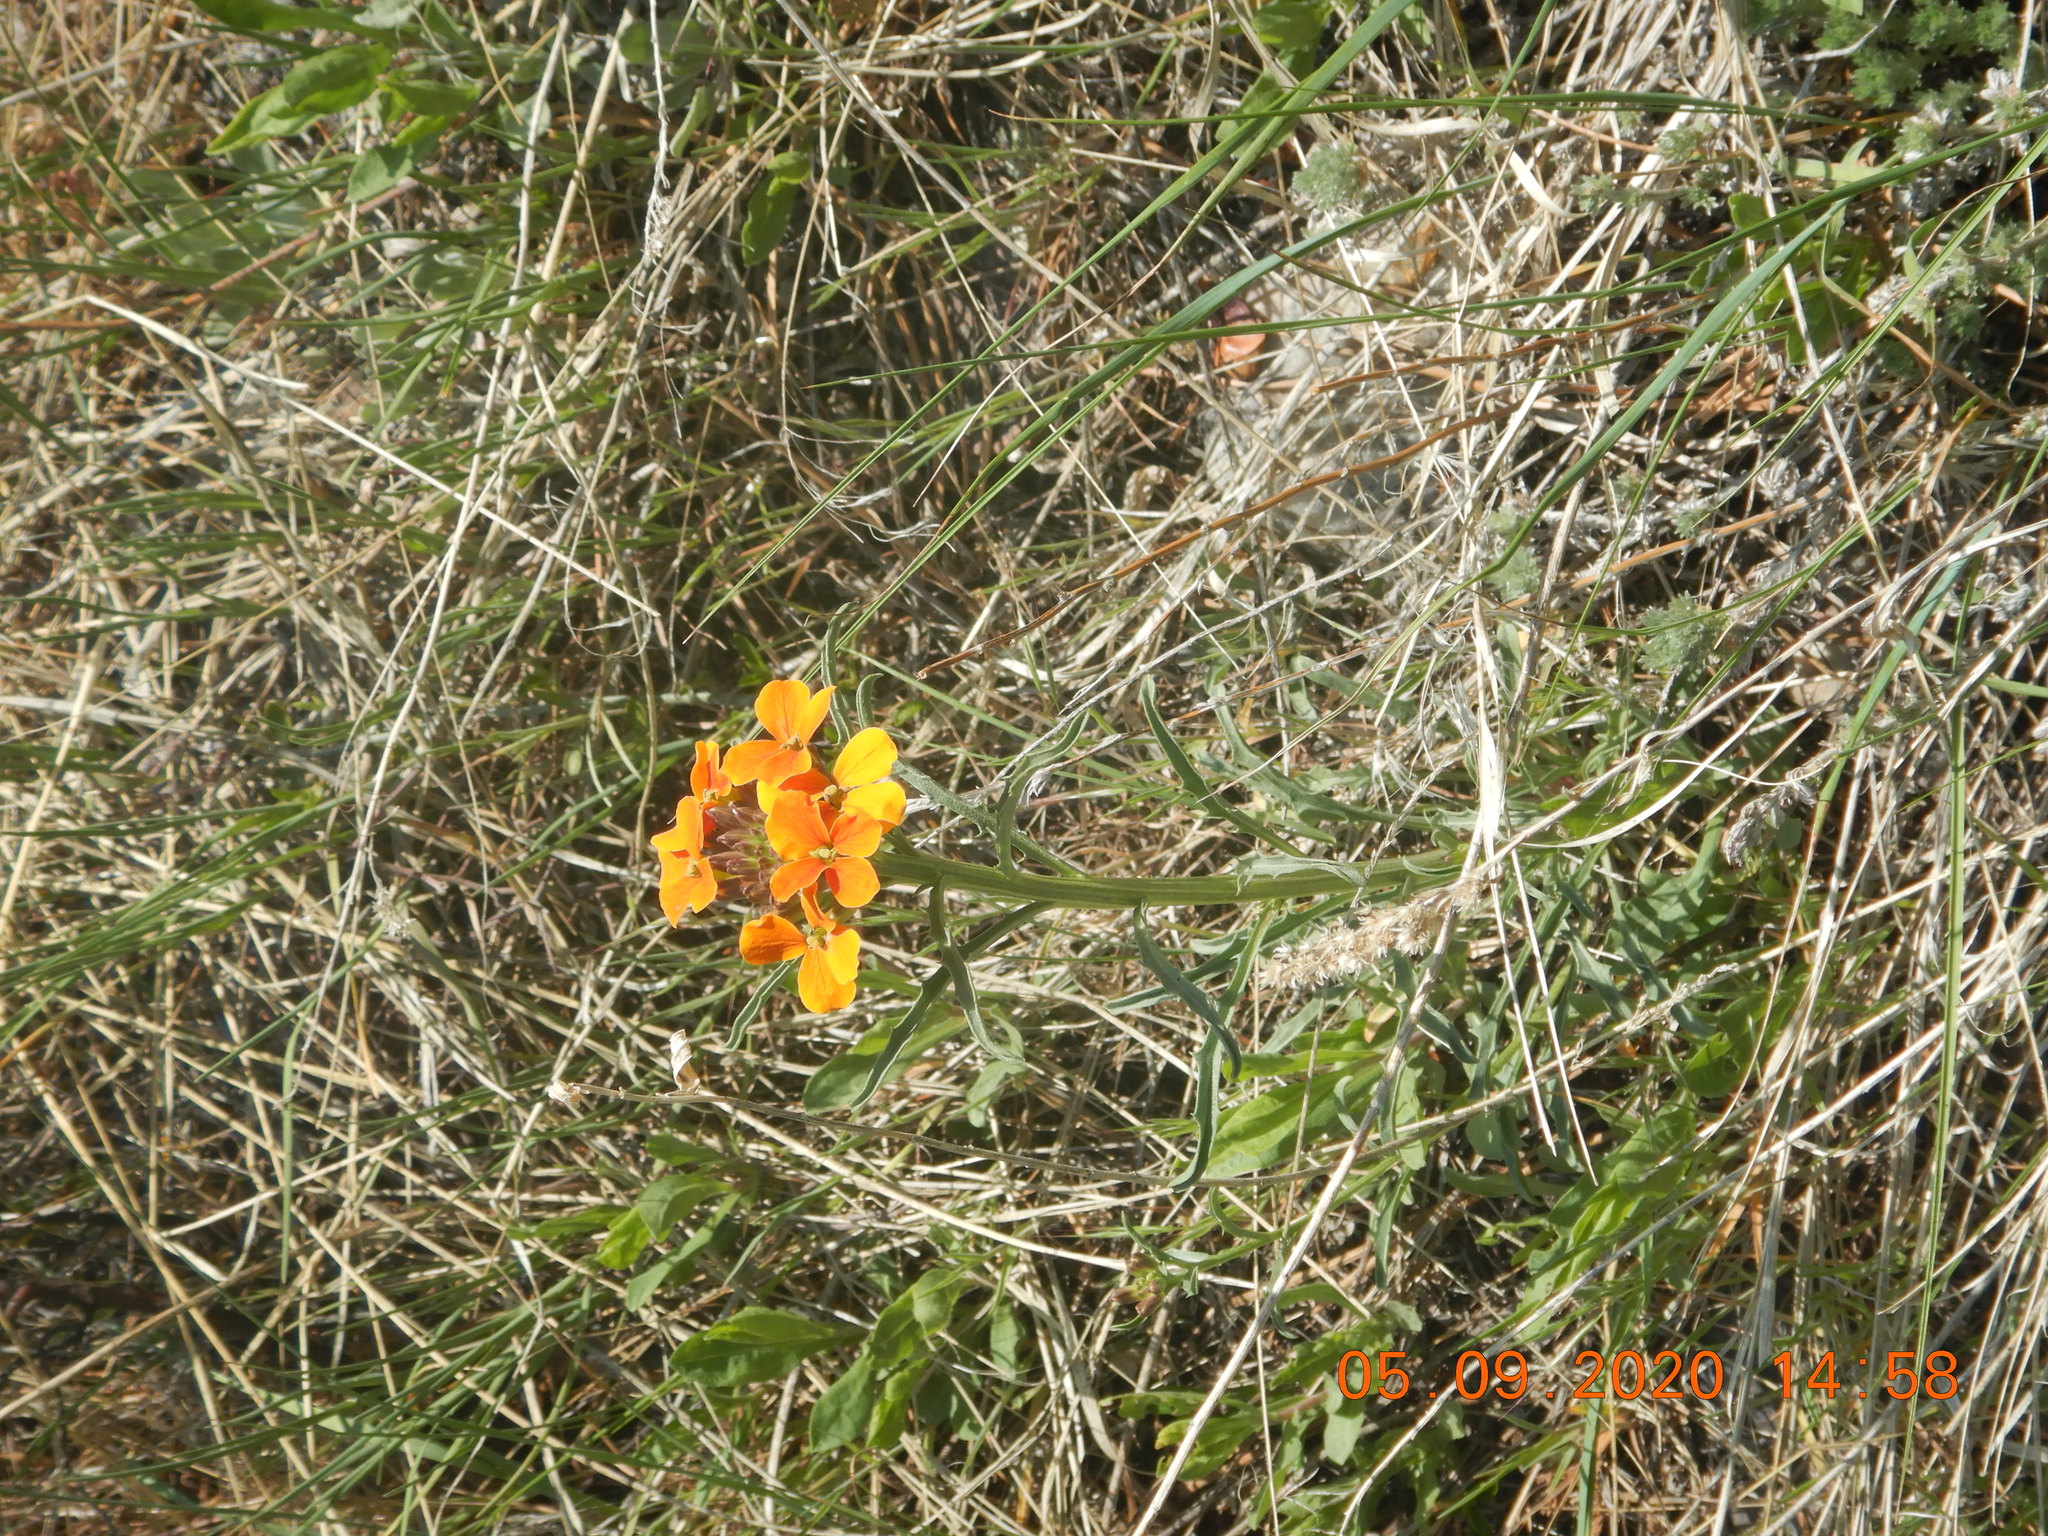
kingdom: Plantae
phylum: Tracheophyta
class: Magnoliopsida
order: Brassicales
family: Brassicaceae
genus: Erysimum
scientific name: Erysimum capitatum
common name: Western wallflower
